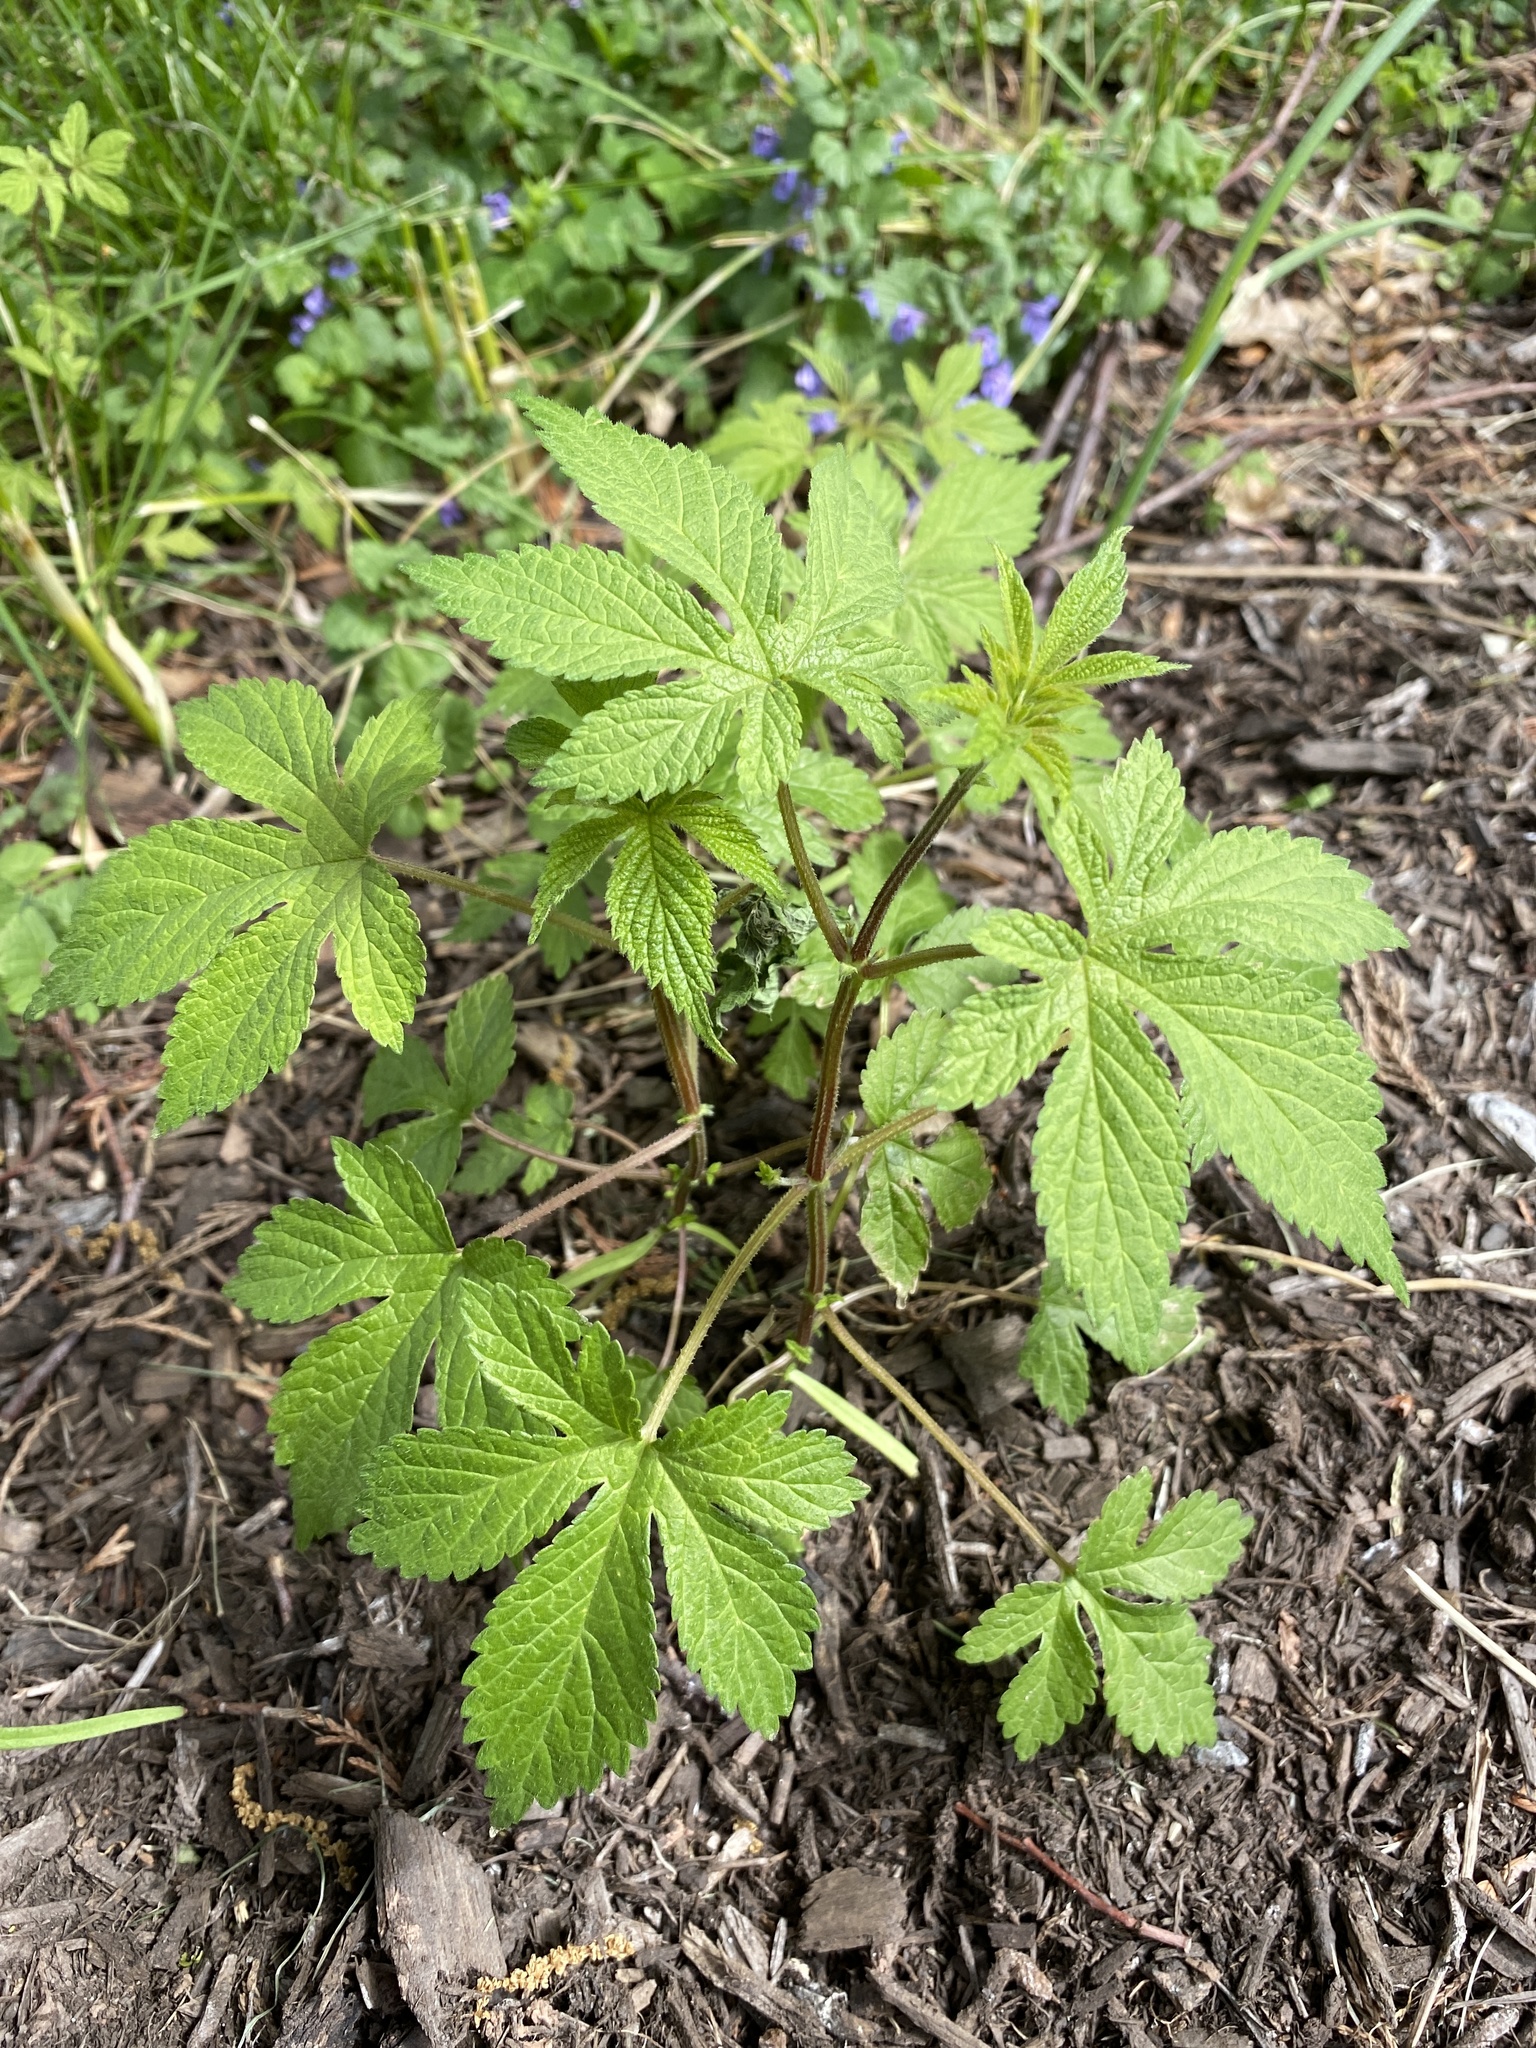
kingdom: Plantae
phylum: Tracheophyta
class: Magnoliopsida
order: Rosales
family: Cannabaceae
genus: Humulus
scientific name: Humulus scandens
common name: Japanese hop
